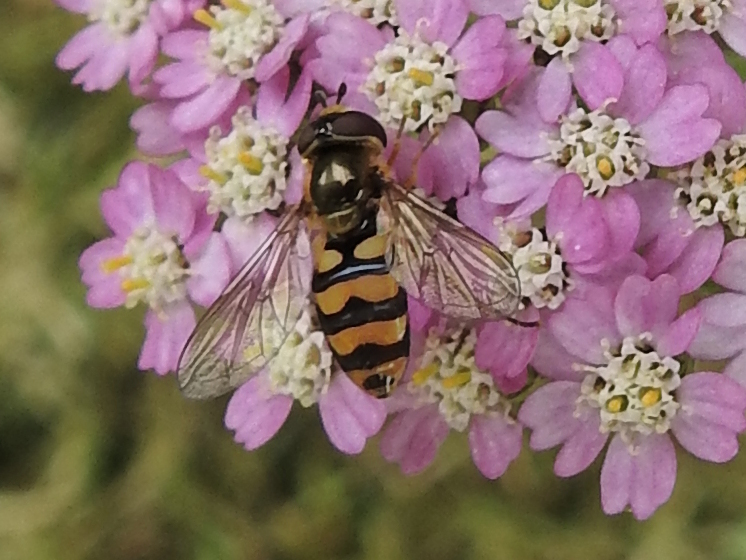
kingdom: Animalia
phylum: Arthropoda
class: Insecta
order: Diptera
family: Syrphidae
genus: Eupeodes
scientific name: Eupeodes latifasciatus
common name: Variable aphideater
